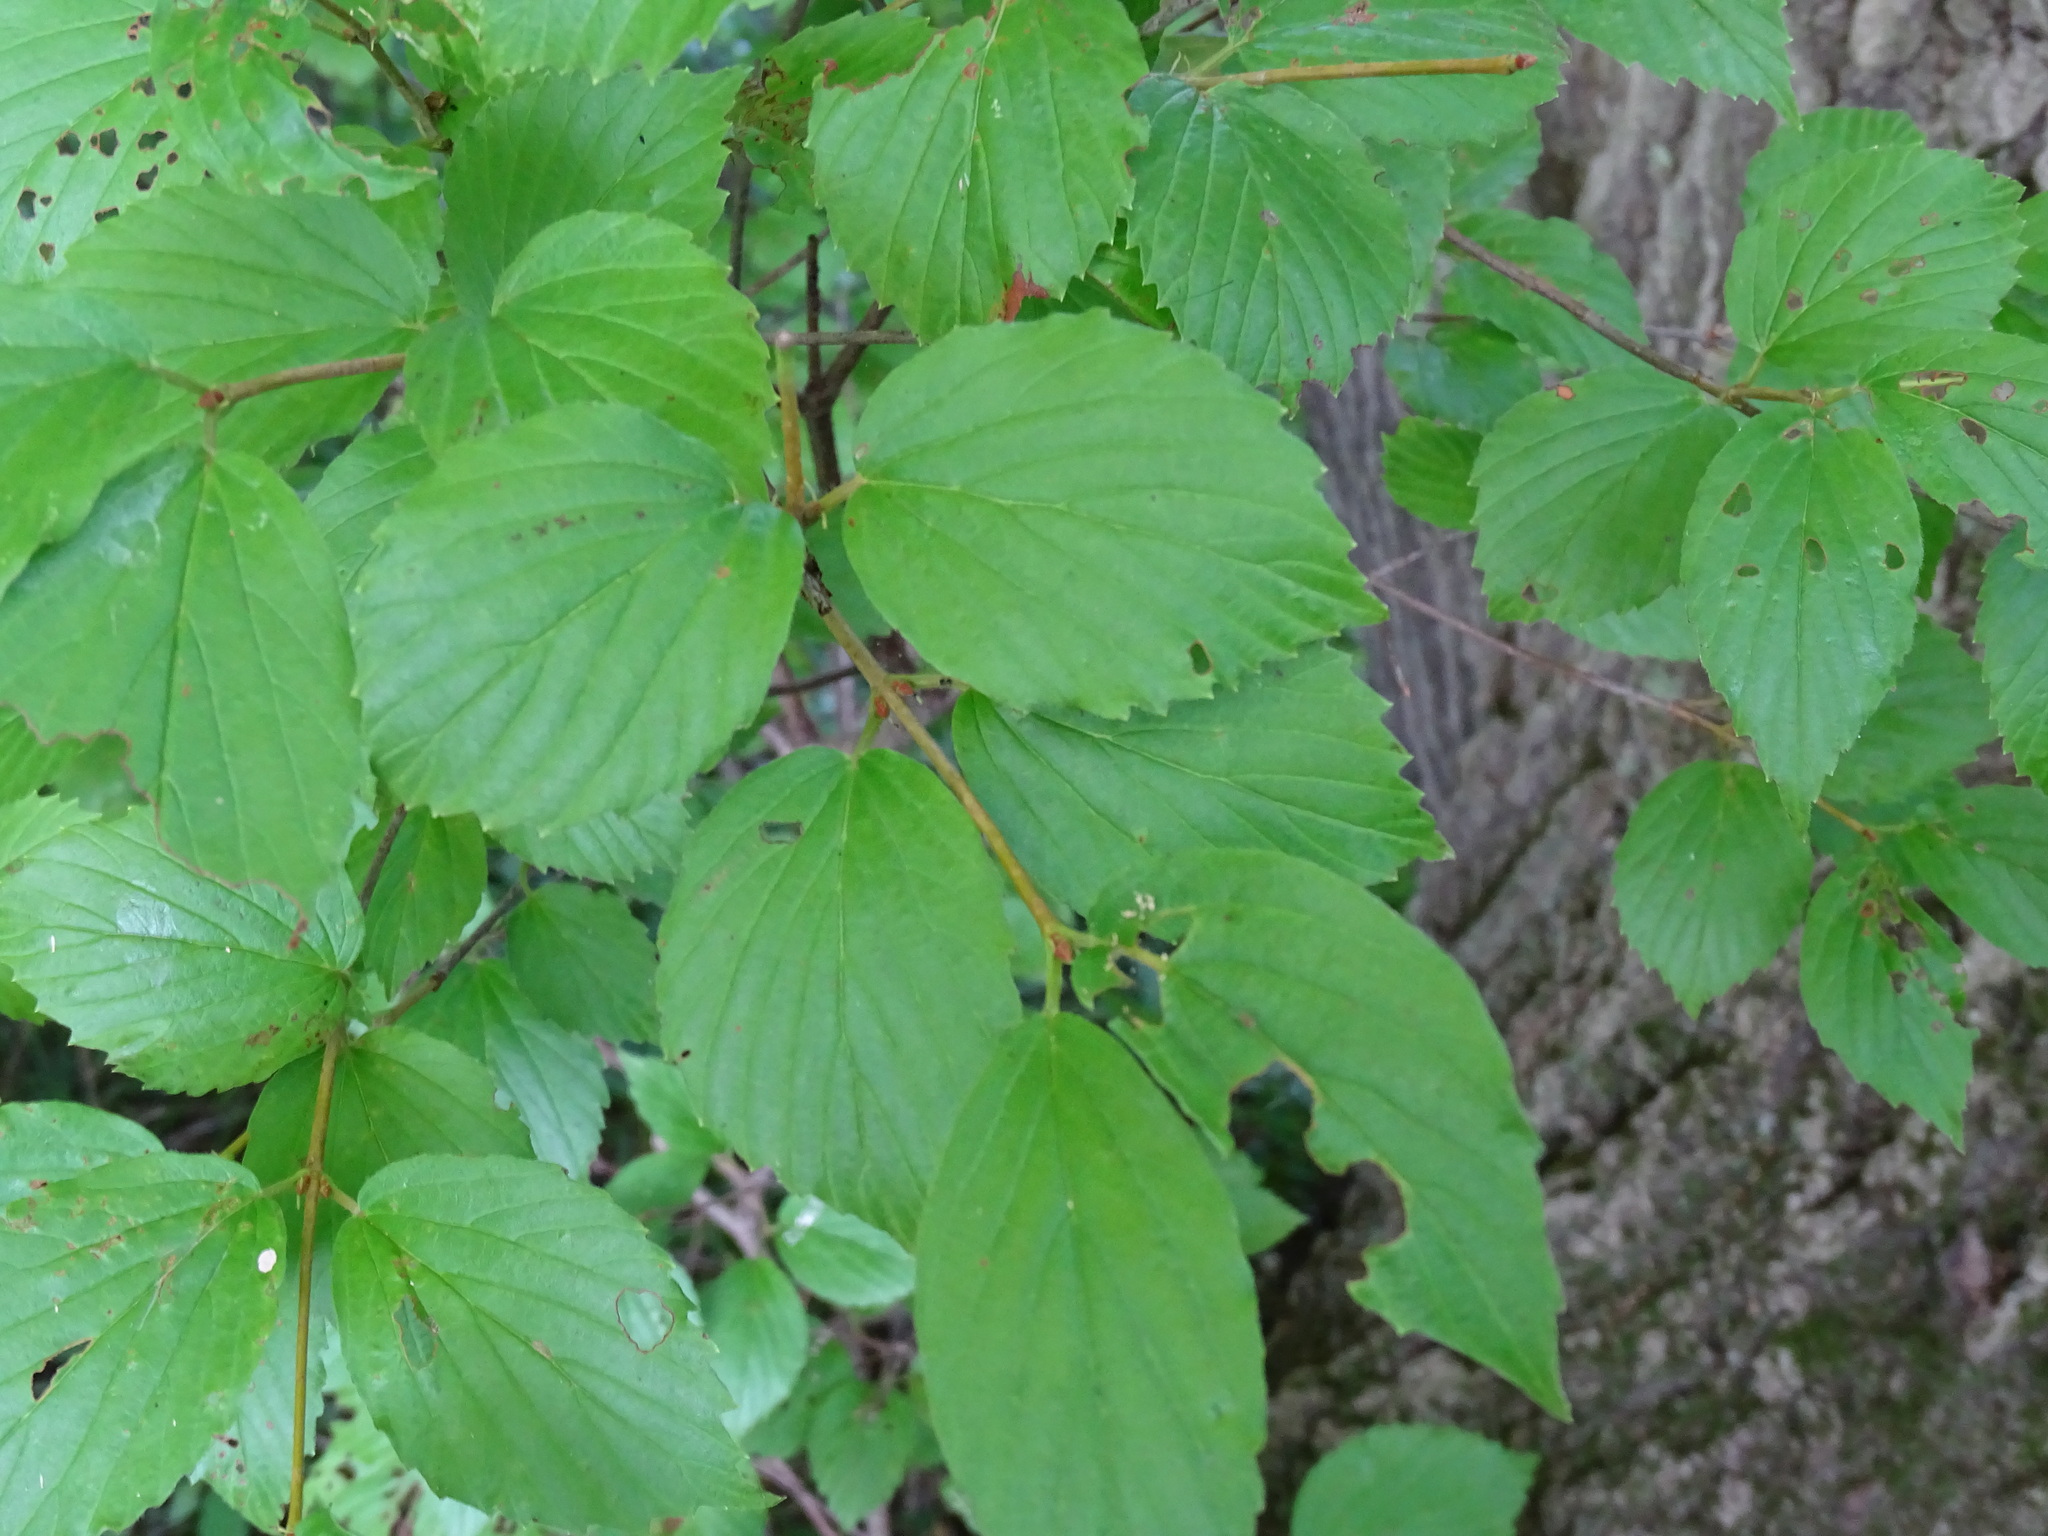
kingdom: Plantae
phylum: Tracheophyta
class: Magnoliopsida
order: Dipsacales
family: Viburnaceae
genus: Viburnum
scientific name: Viburnum rafinesqueanum
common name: Downy arrow-wood
